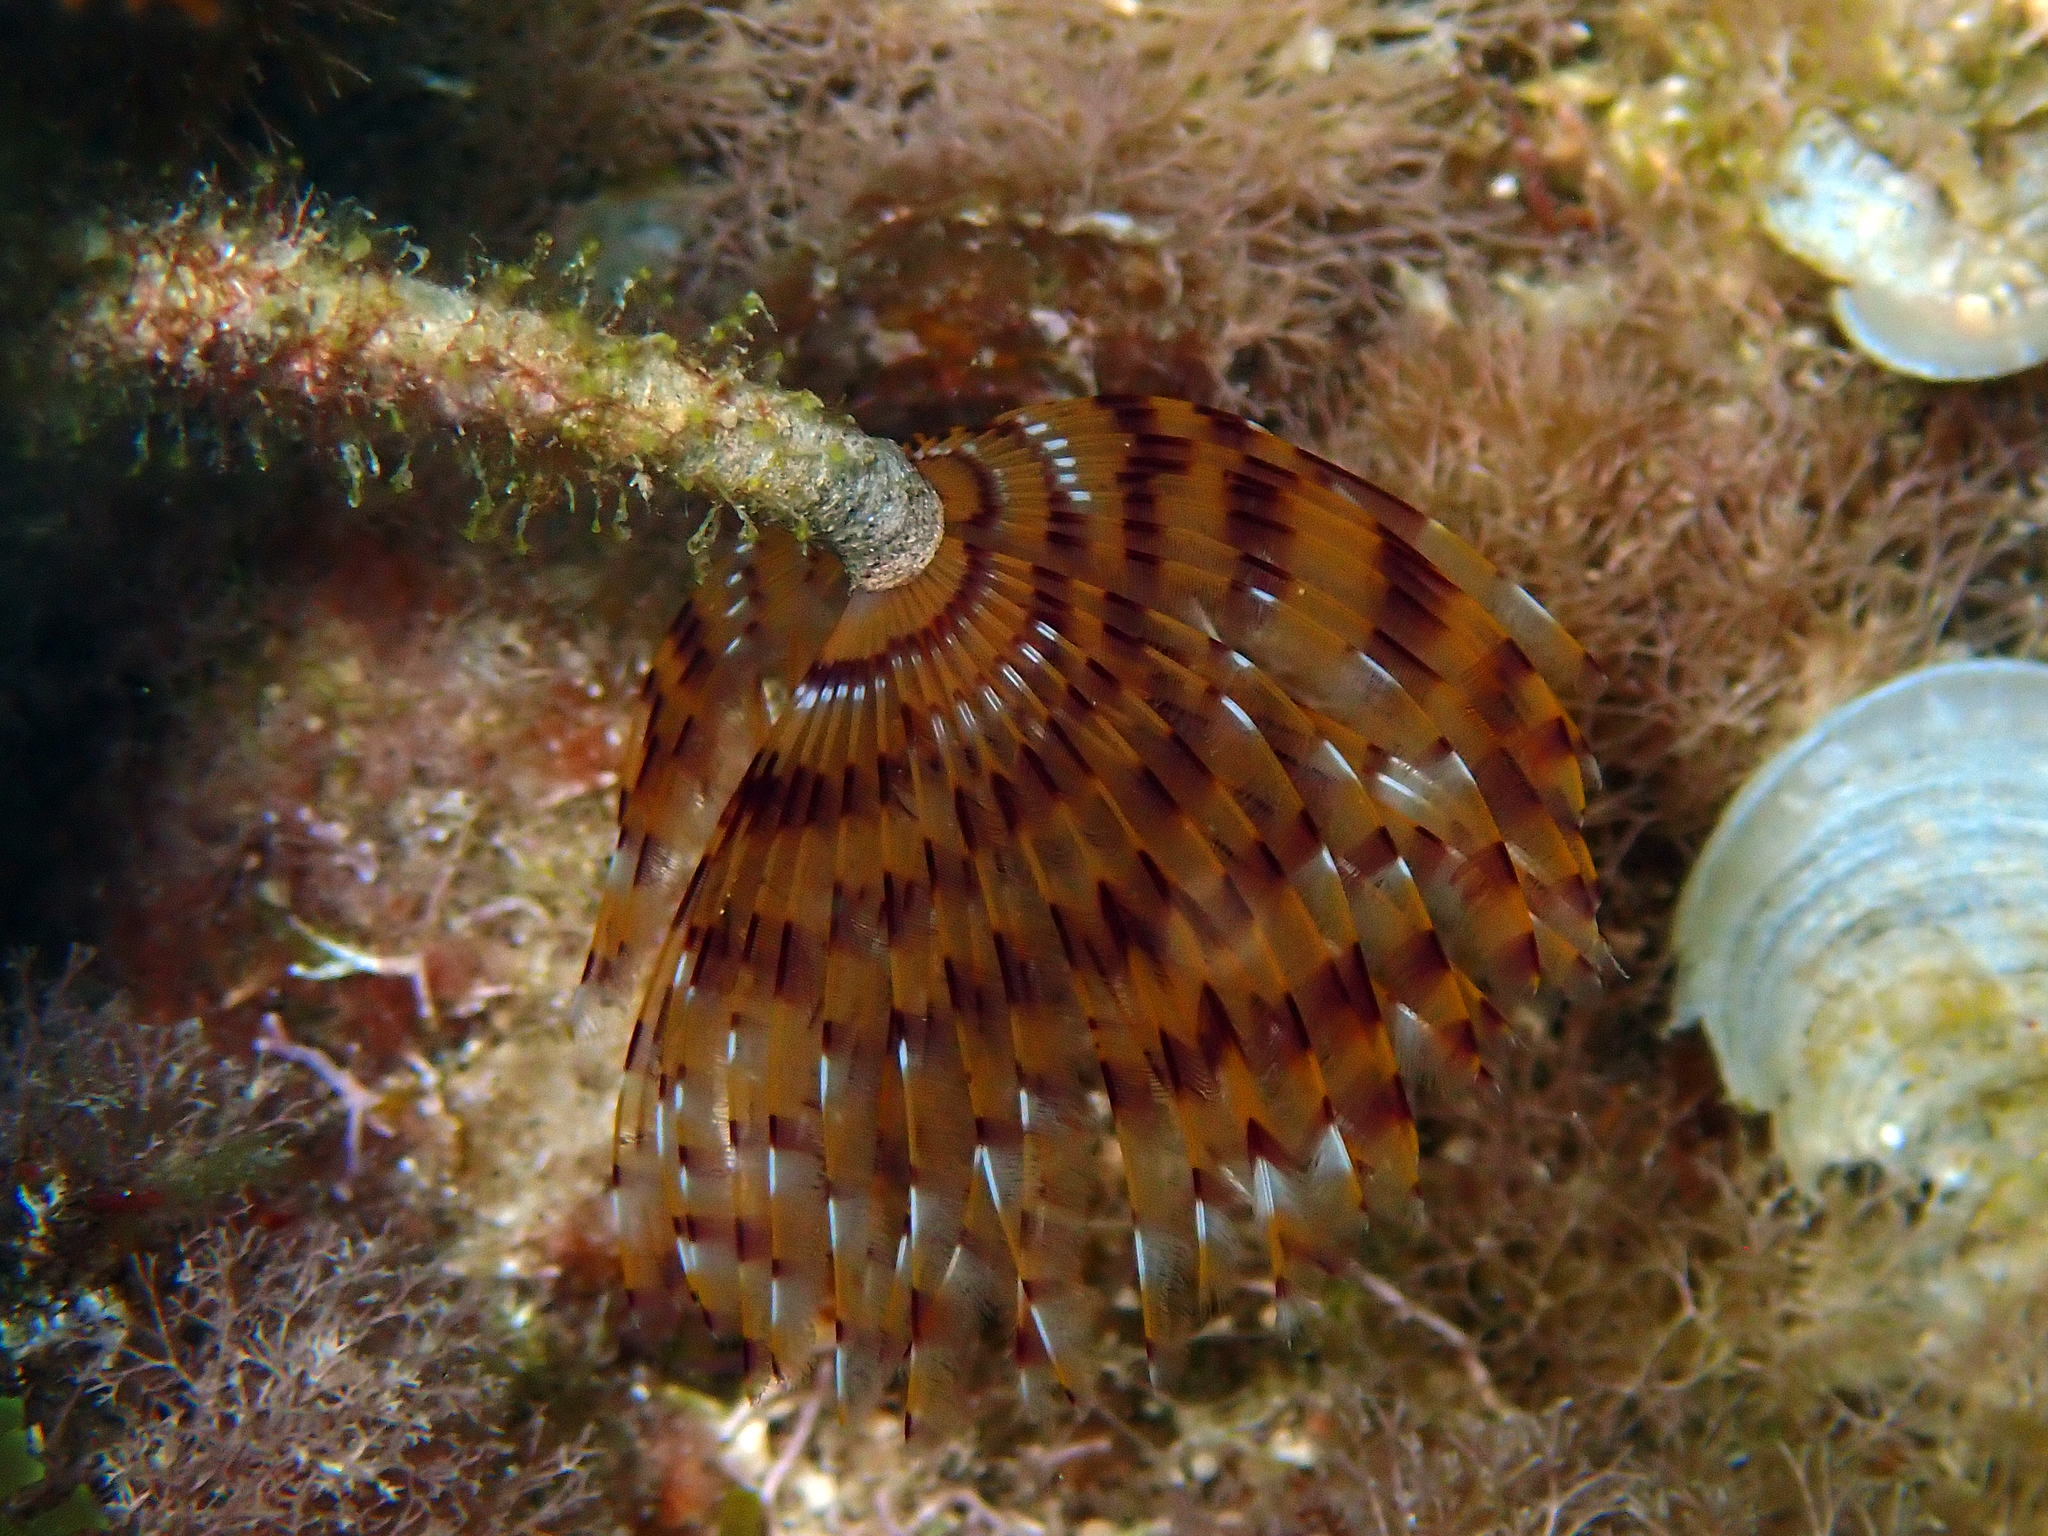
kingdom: Animalia
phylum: Annelida
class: Polychaeta
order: Sabellida
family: Sabellidae
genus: Sabella
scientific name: Sabella spallanzanii
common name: Feather duster worm
